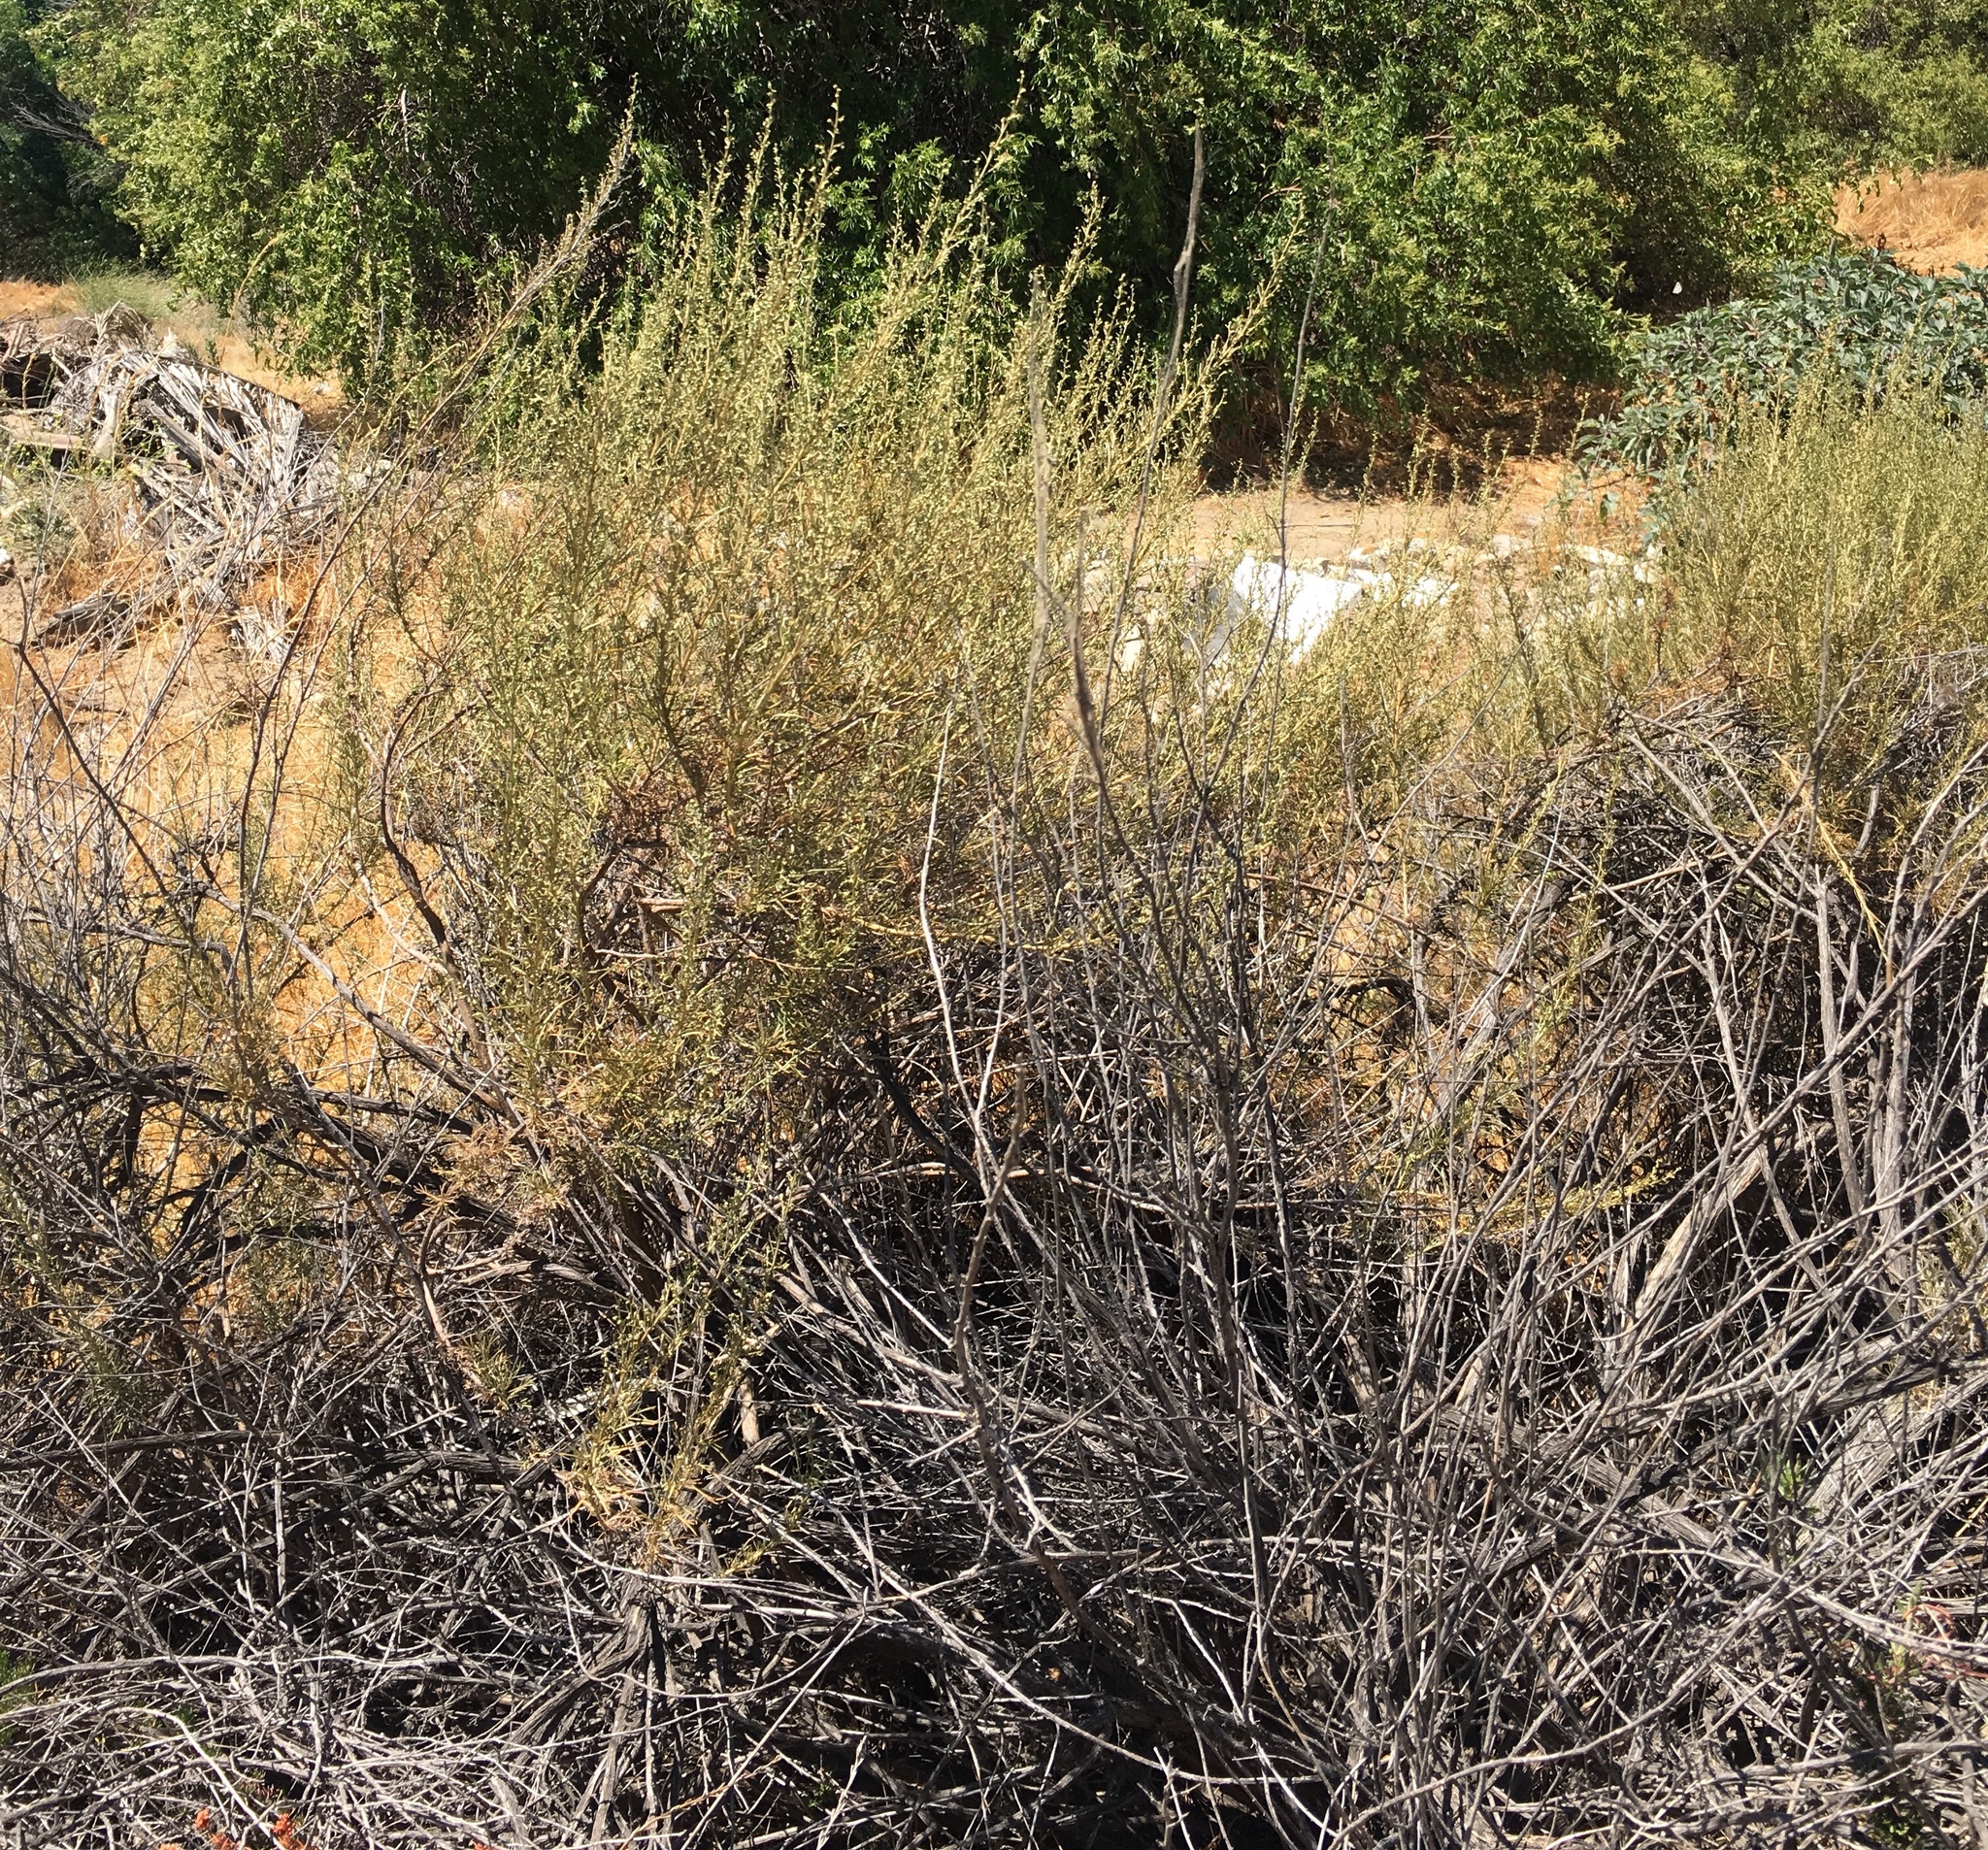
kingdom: Plantae
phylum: Tracheophyta
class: Magnoliopsida
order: Asterales
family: Asteraceae
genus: Artemisia
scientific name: Artemisia californica
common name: California sagebrush
